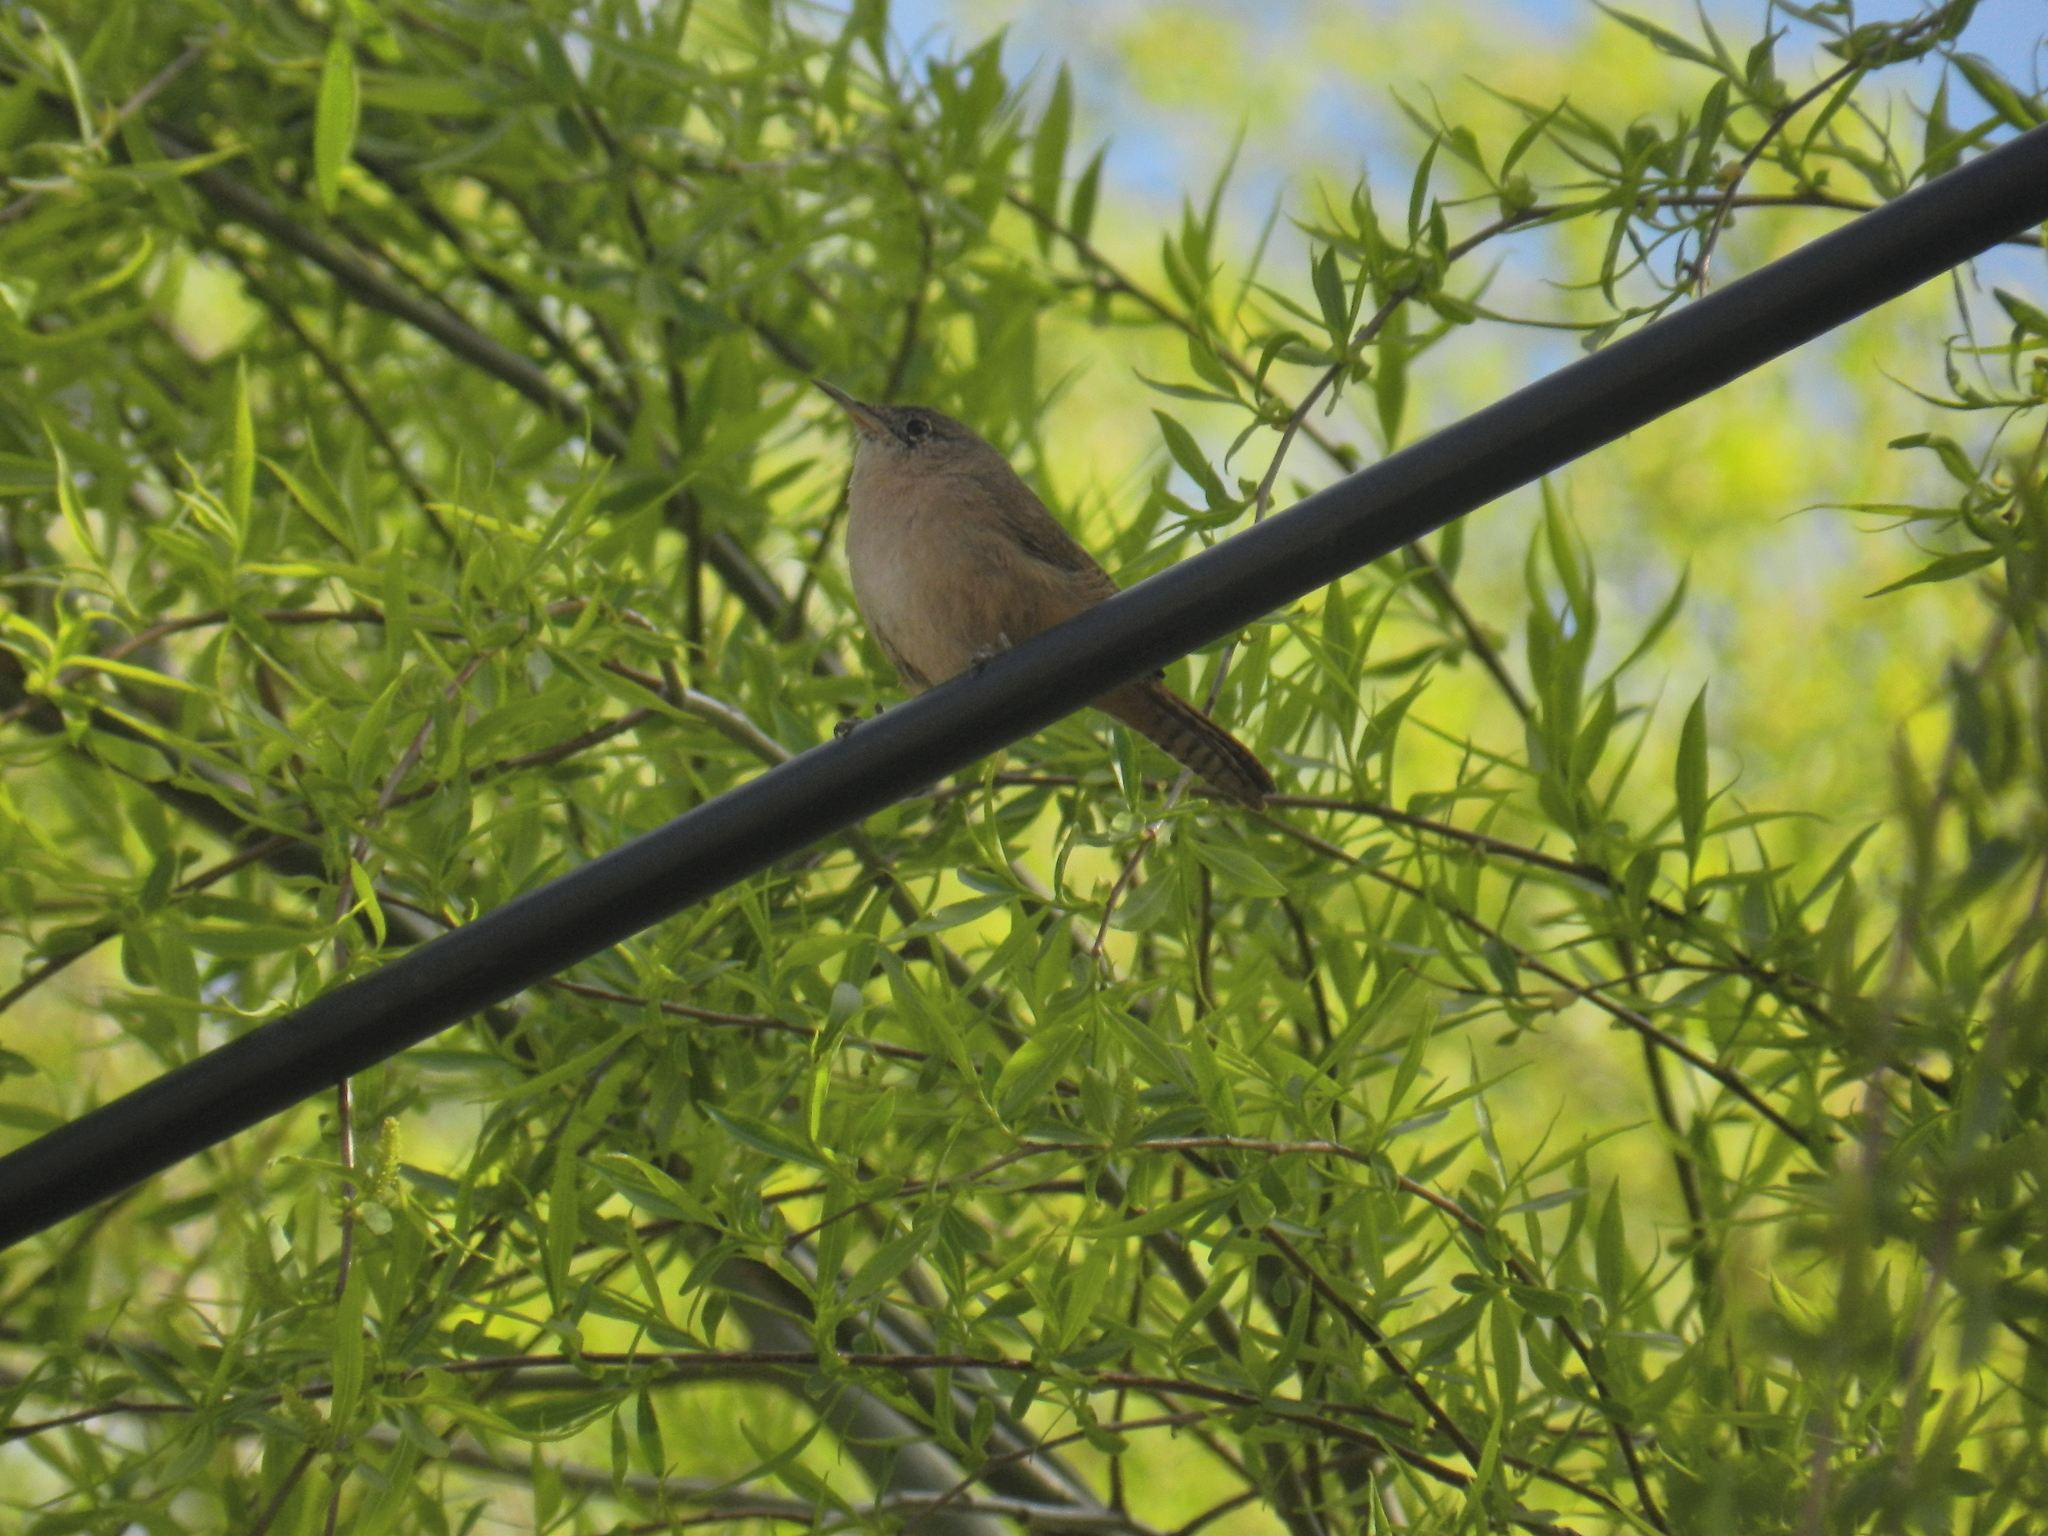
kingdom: Animalia
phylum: Chordata
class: Aves
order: Passeriformes
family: Troglodytidae
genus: Troglodytes
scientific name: Troglodytes aedon
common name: House wren
